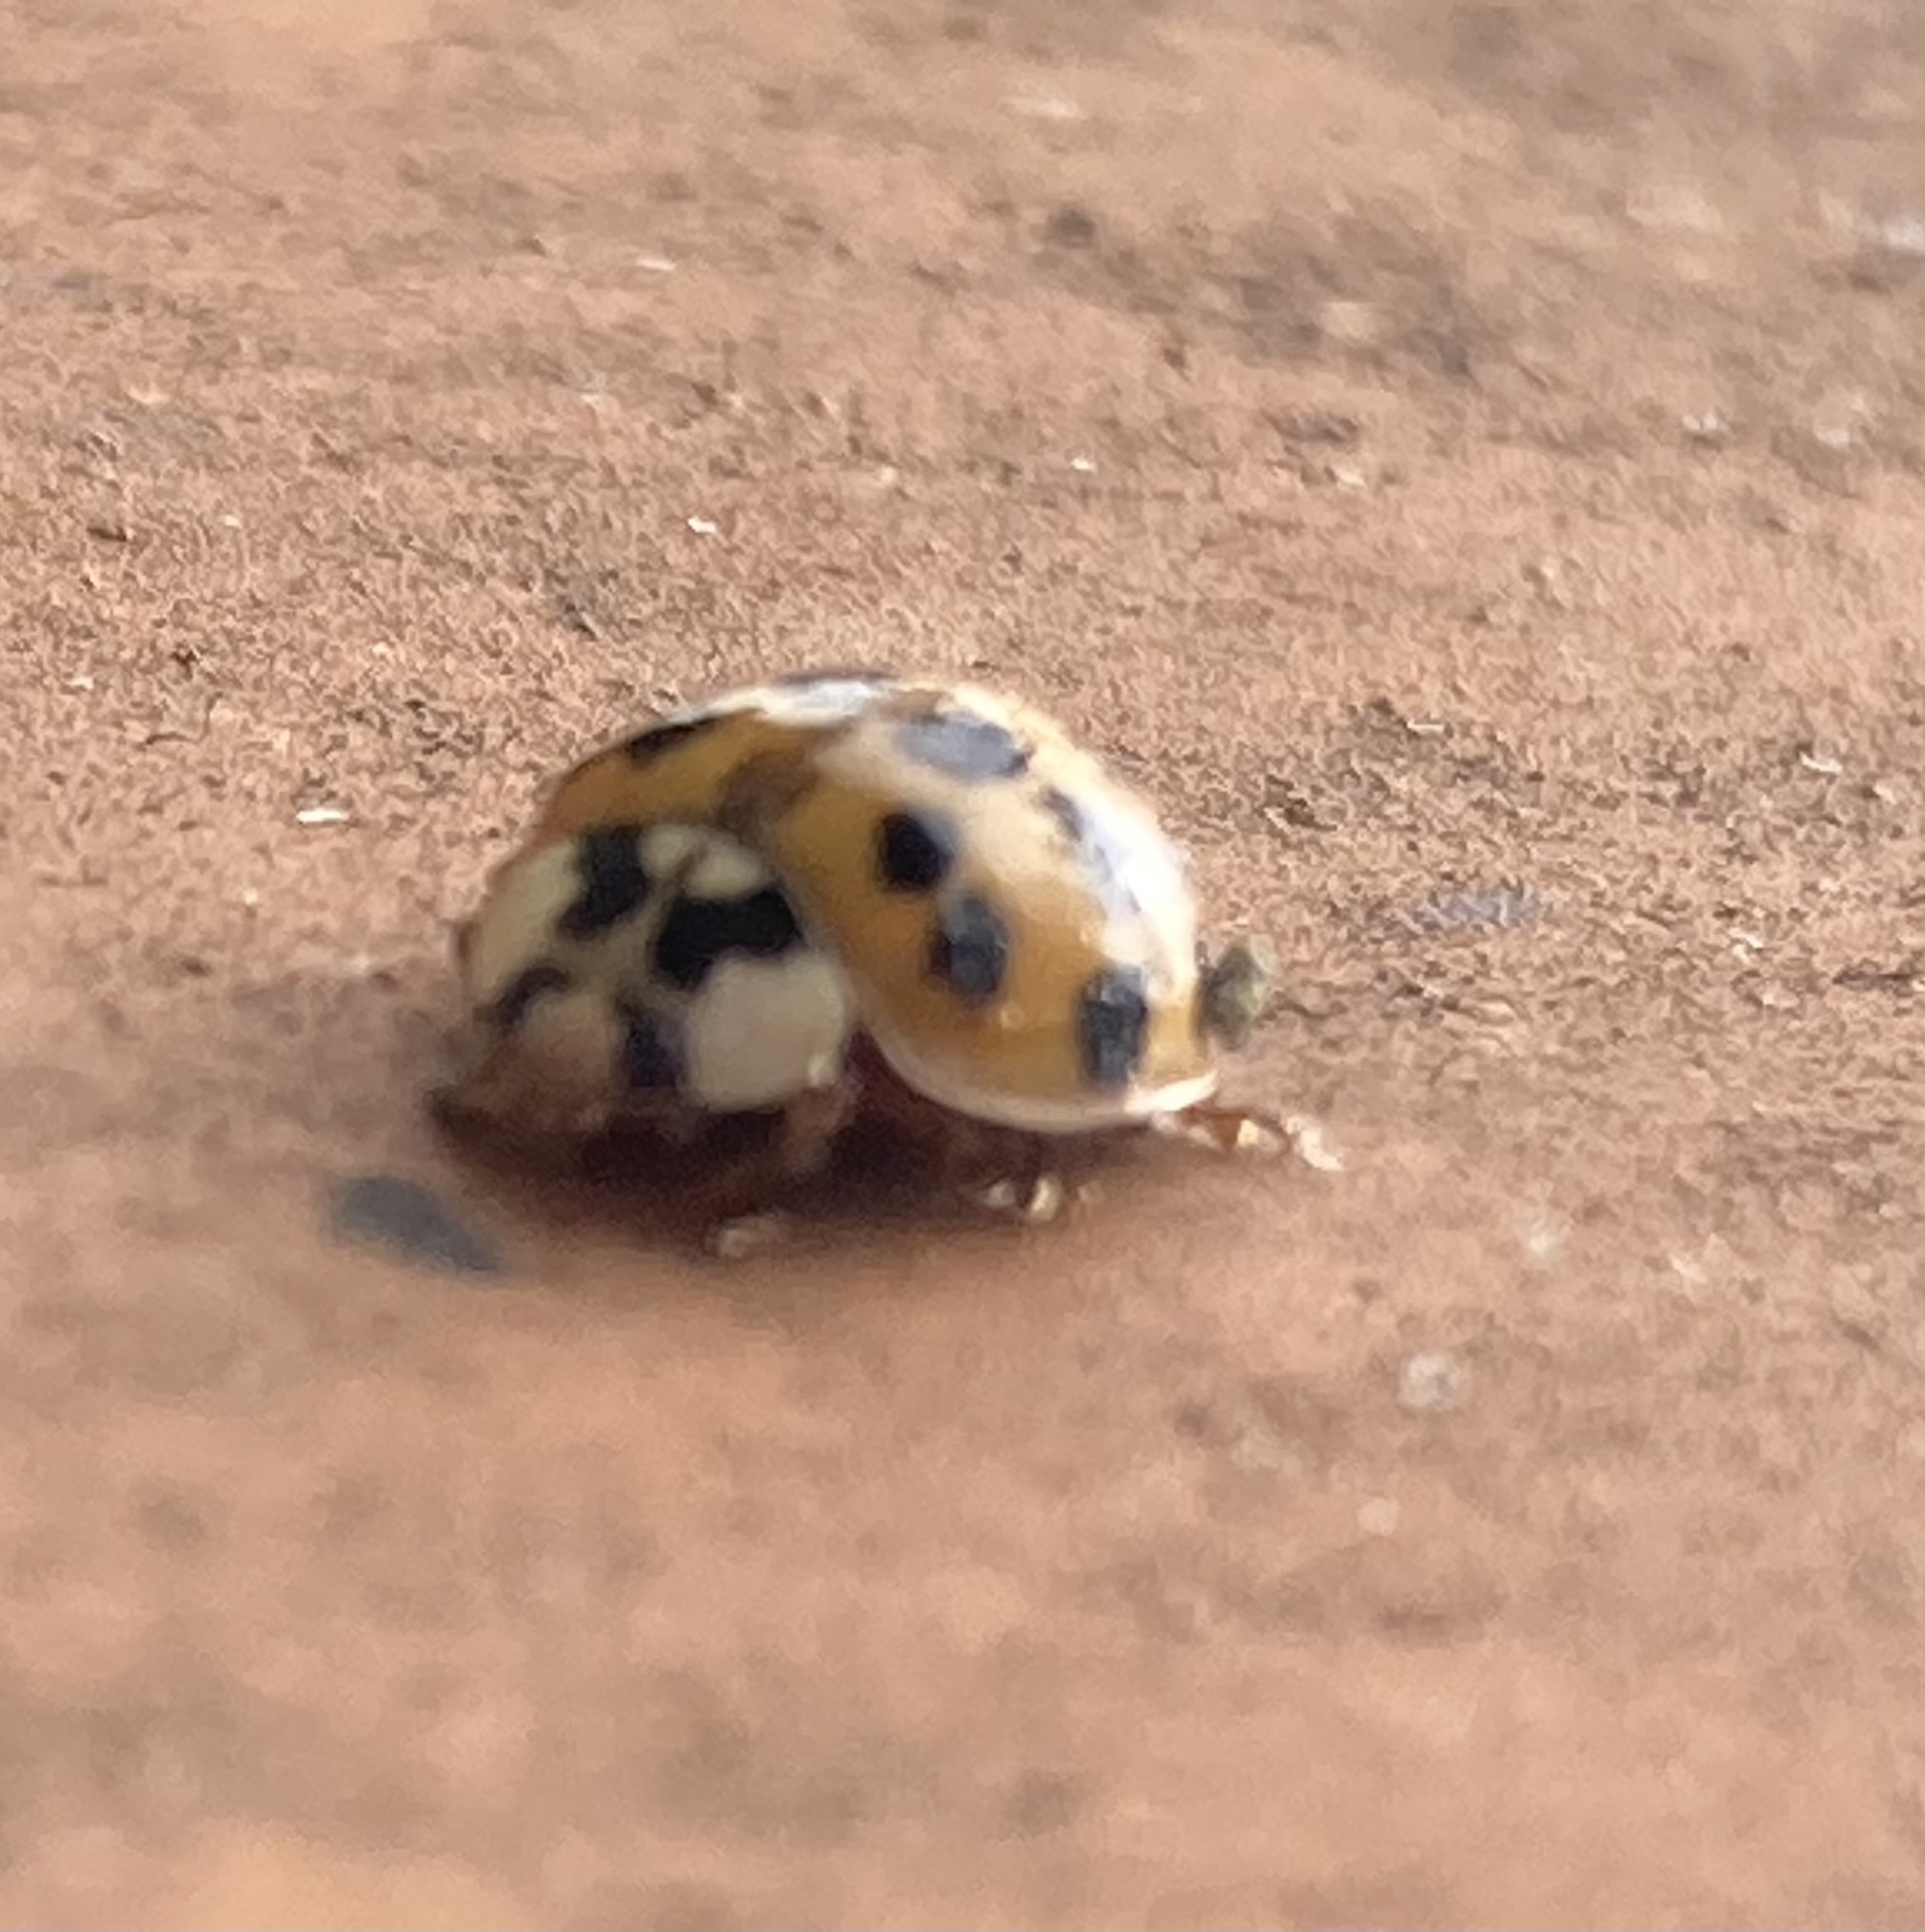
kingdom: Animalia
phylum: Arthropoda
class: Insecta
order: Coleoptera
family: Coccinellidae
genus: Harmonia
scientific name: Harmonia axyridis
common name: Harlequin ladybird
